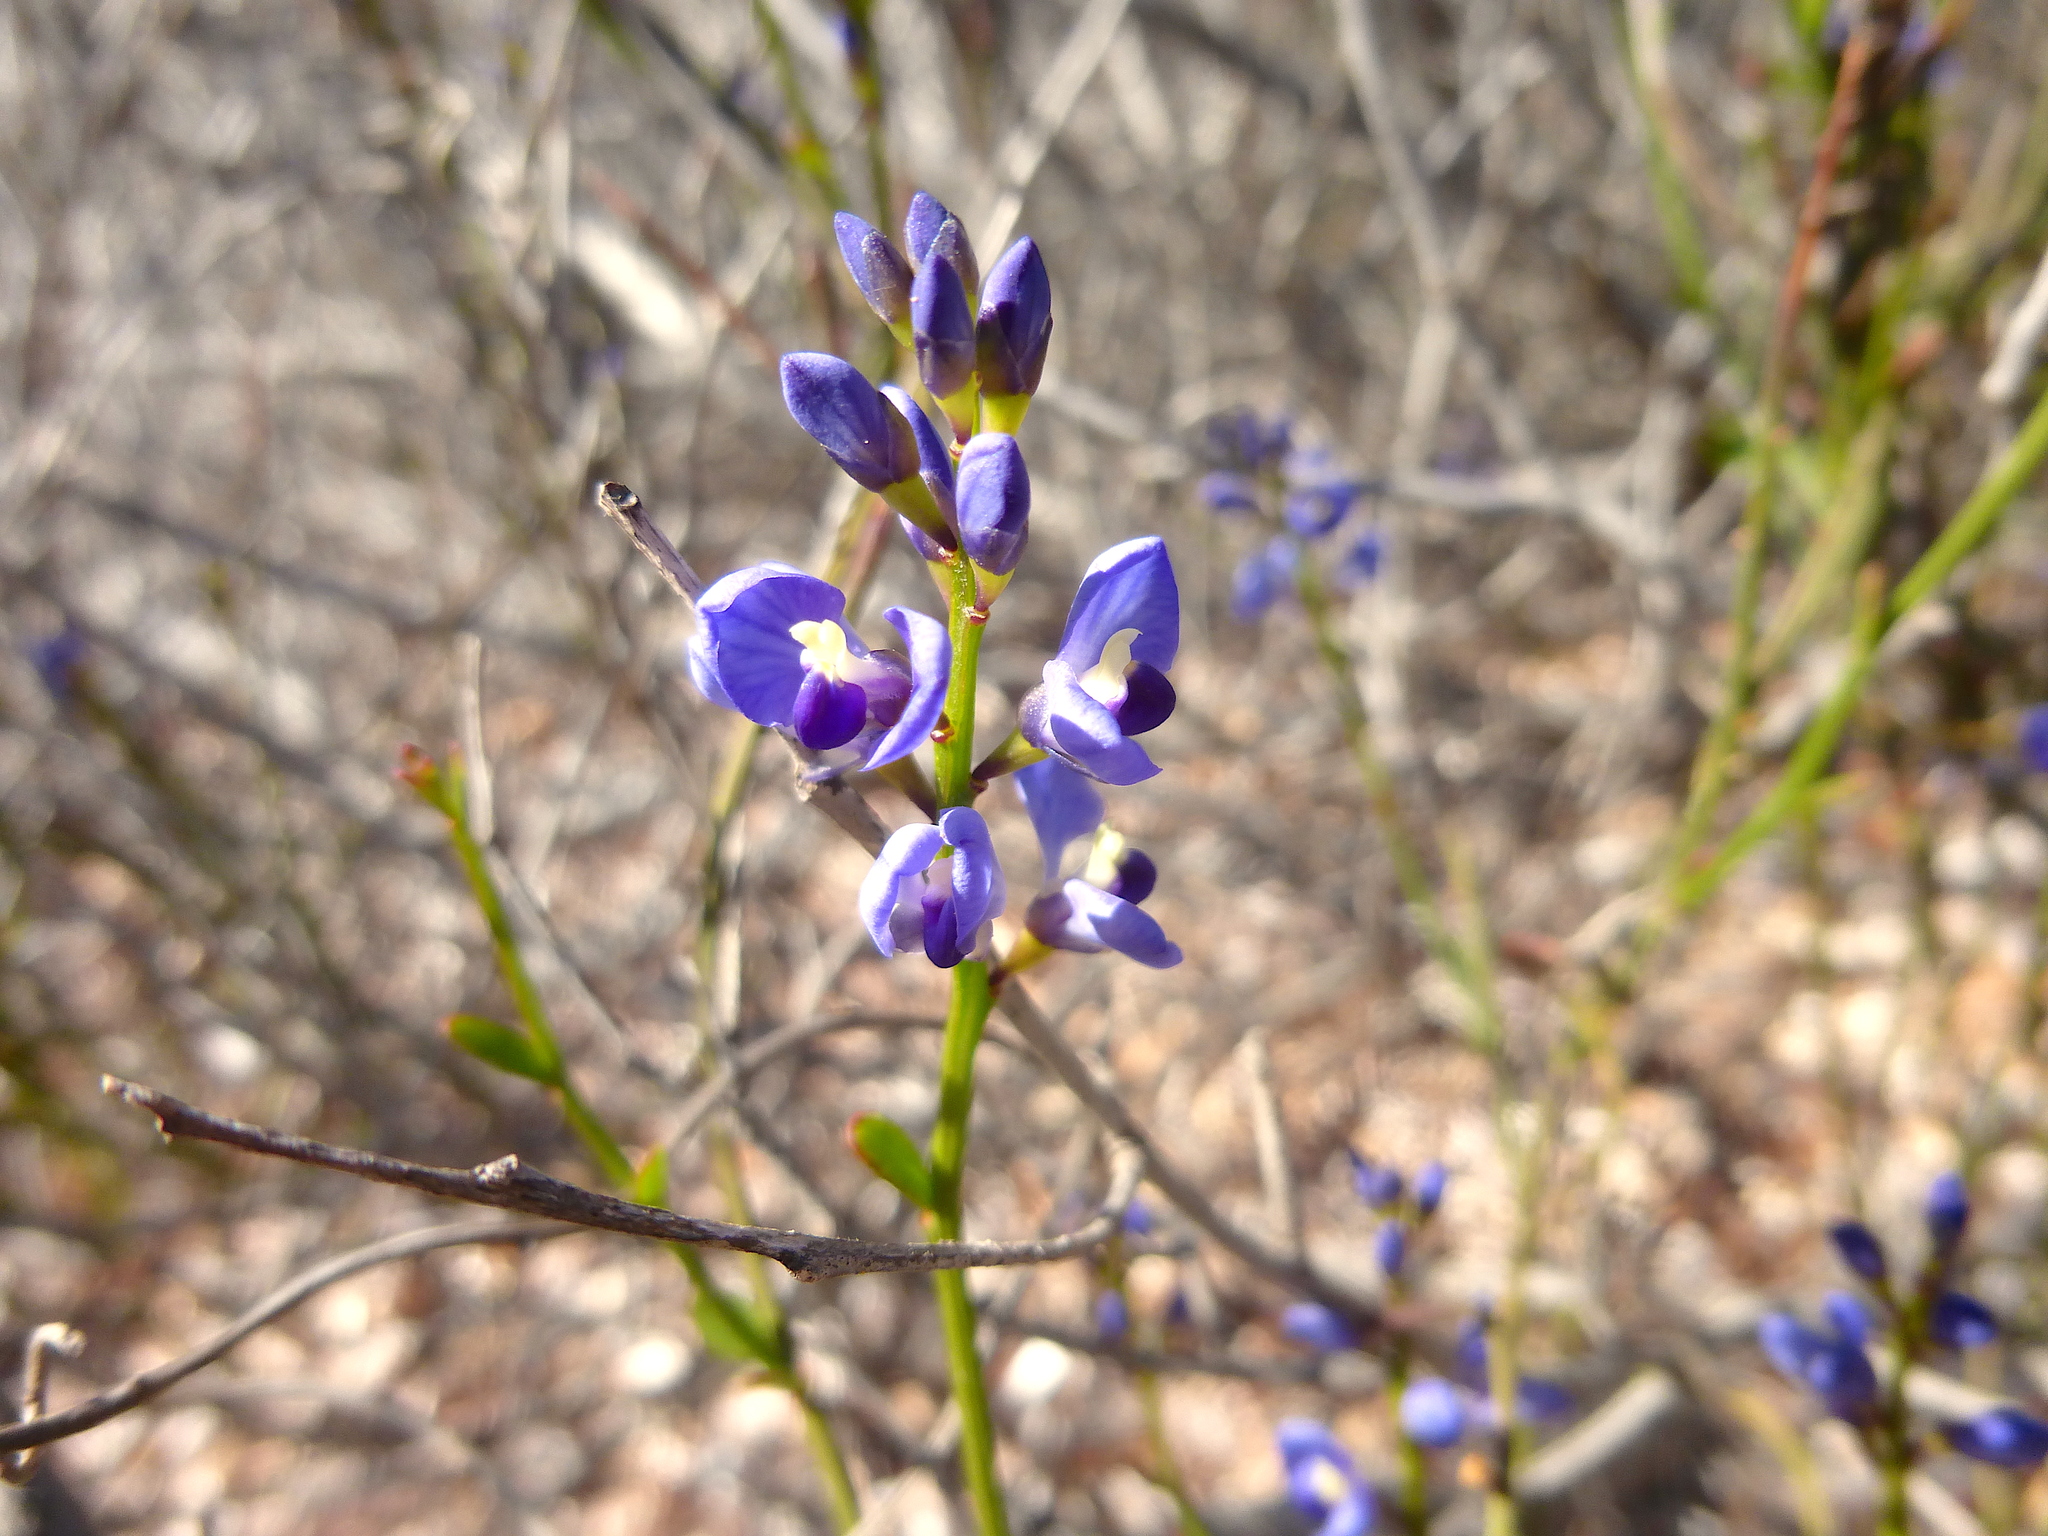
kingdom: Plantae
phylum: Tracheophyta
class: Magnoliopsida
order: Fabales
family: Polygalaceae
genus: Comesperma
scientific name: Comesperma volubile
